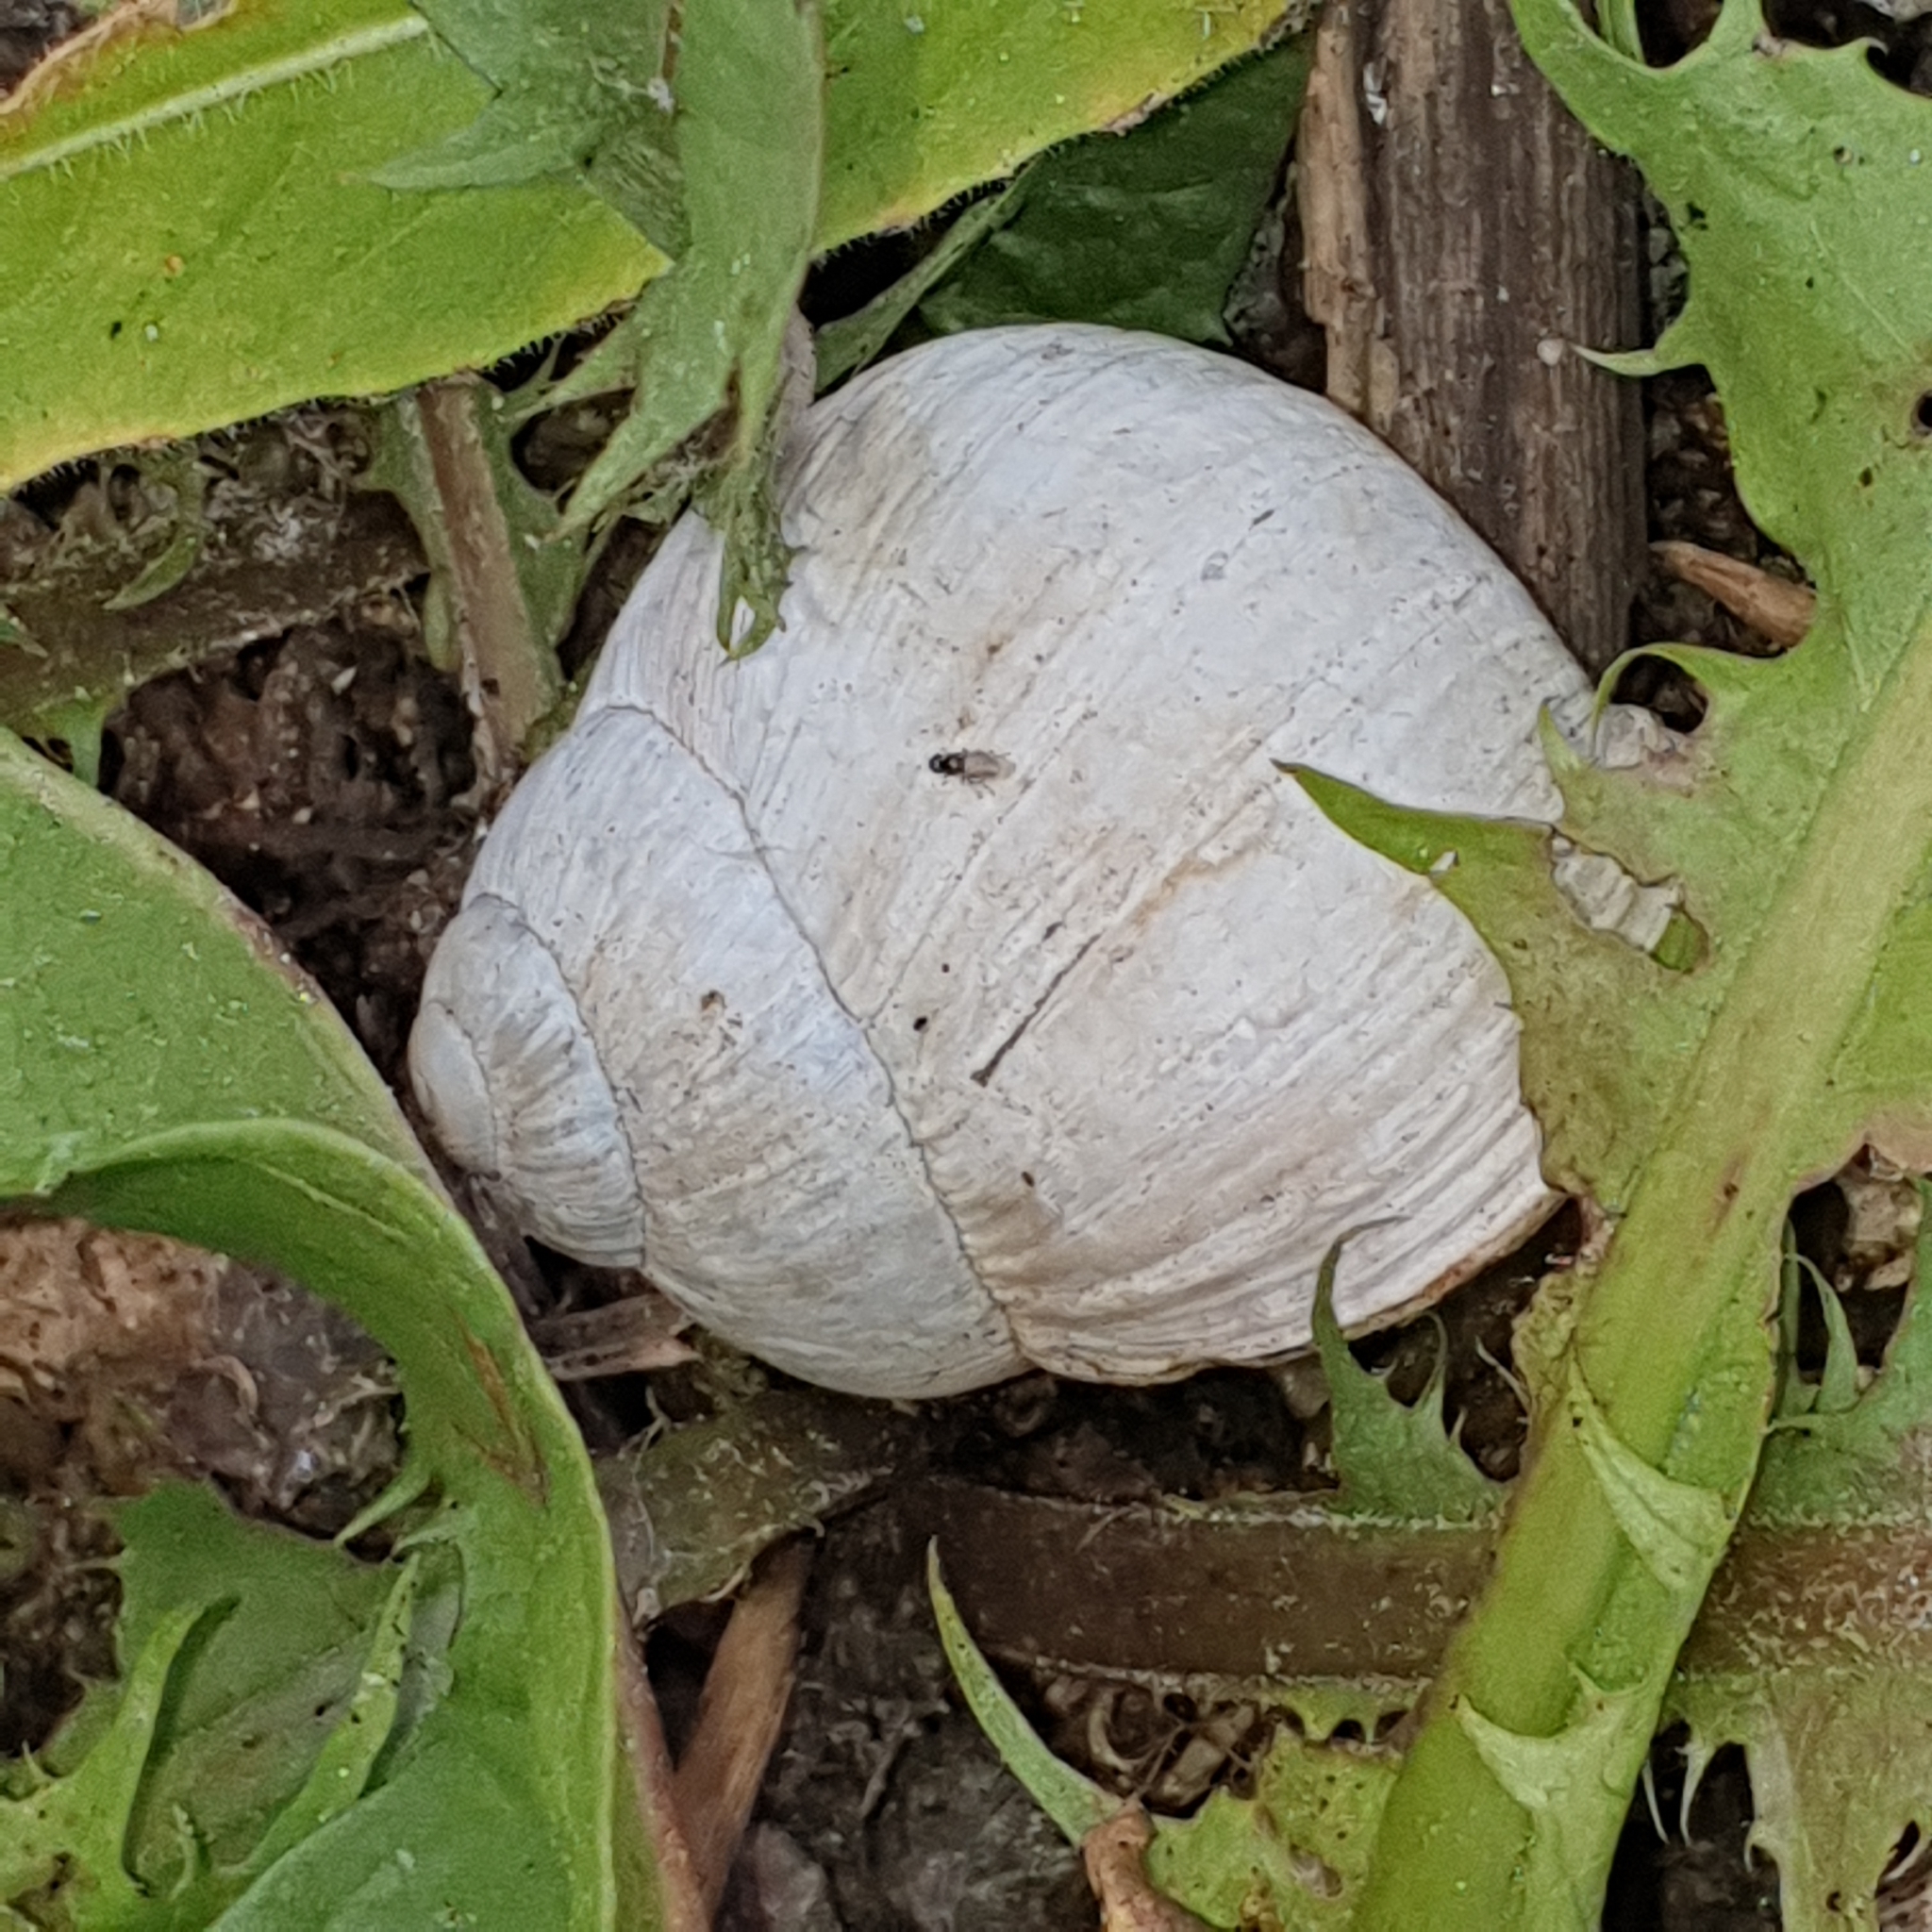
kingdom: Animalia
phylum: Mollusca
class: Gastropoda
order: Stylommatophora
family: Helicidae
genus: Helix
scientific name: Helix pomatia
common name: Roman snail
